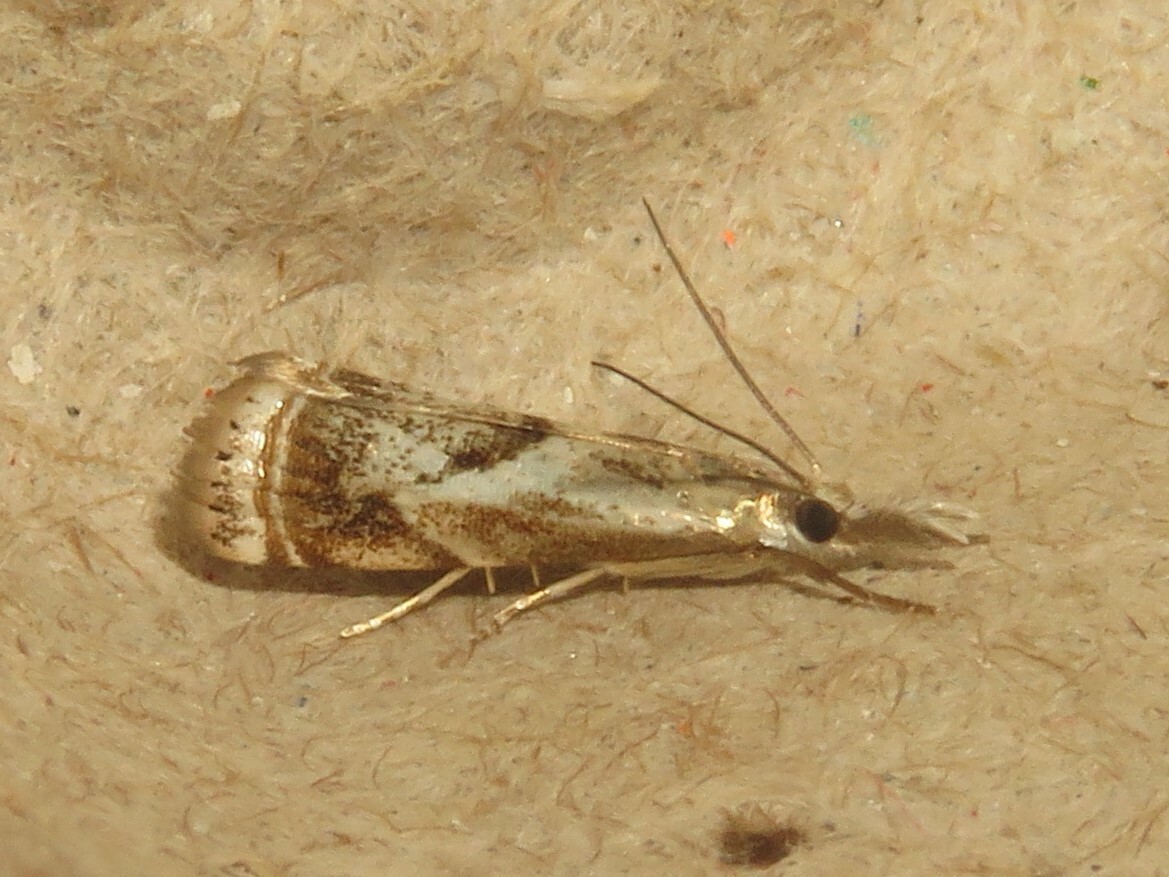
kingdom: Animalia
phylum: Arthropoda
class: Insecta
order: Lepidoptera
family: Crambidae
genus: Microcrambus
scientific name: Microcrambus elegans
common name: Elegant grass-veneer
